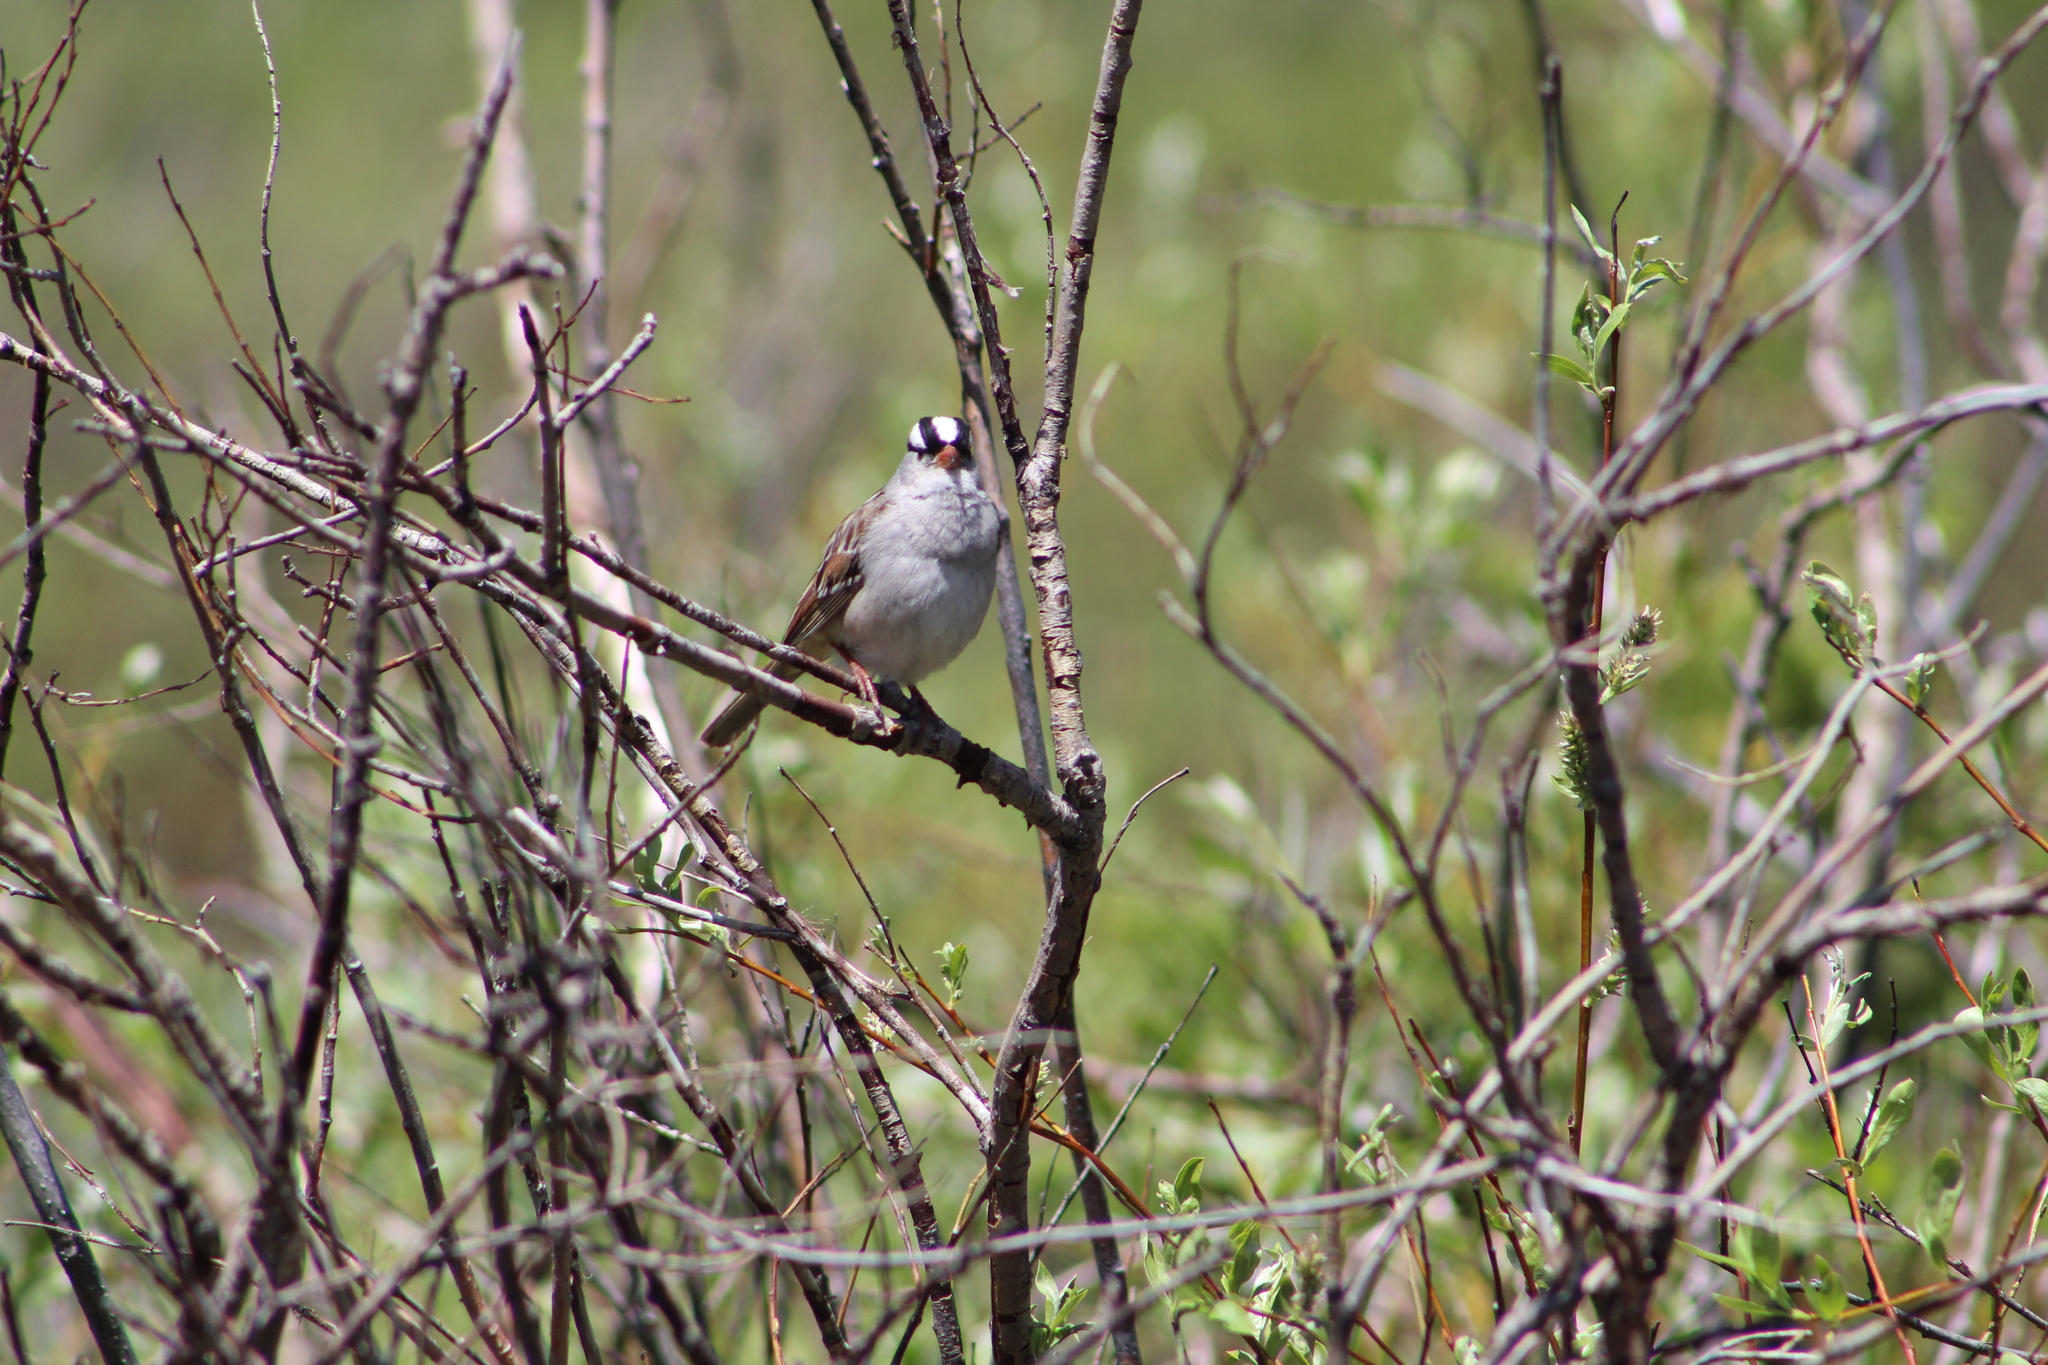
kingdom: Animalia
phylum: Chordata
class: Aves
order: Passeriformes
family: Passerellidae
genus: Zonotrichia
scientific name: Zonotrichia leucophrys
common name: White-crowned sparrow
